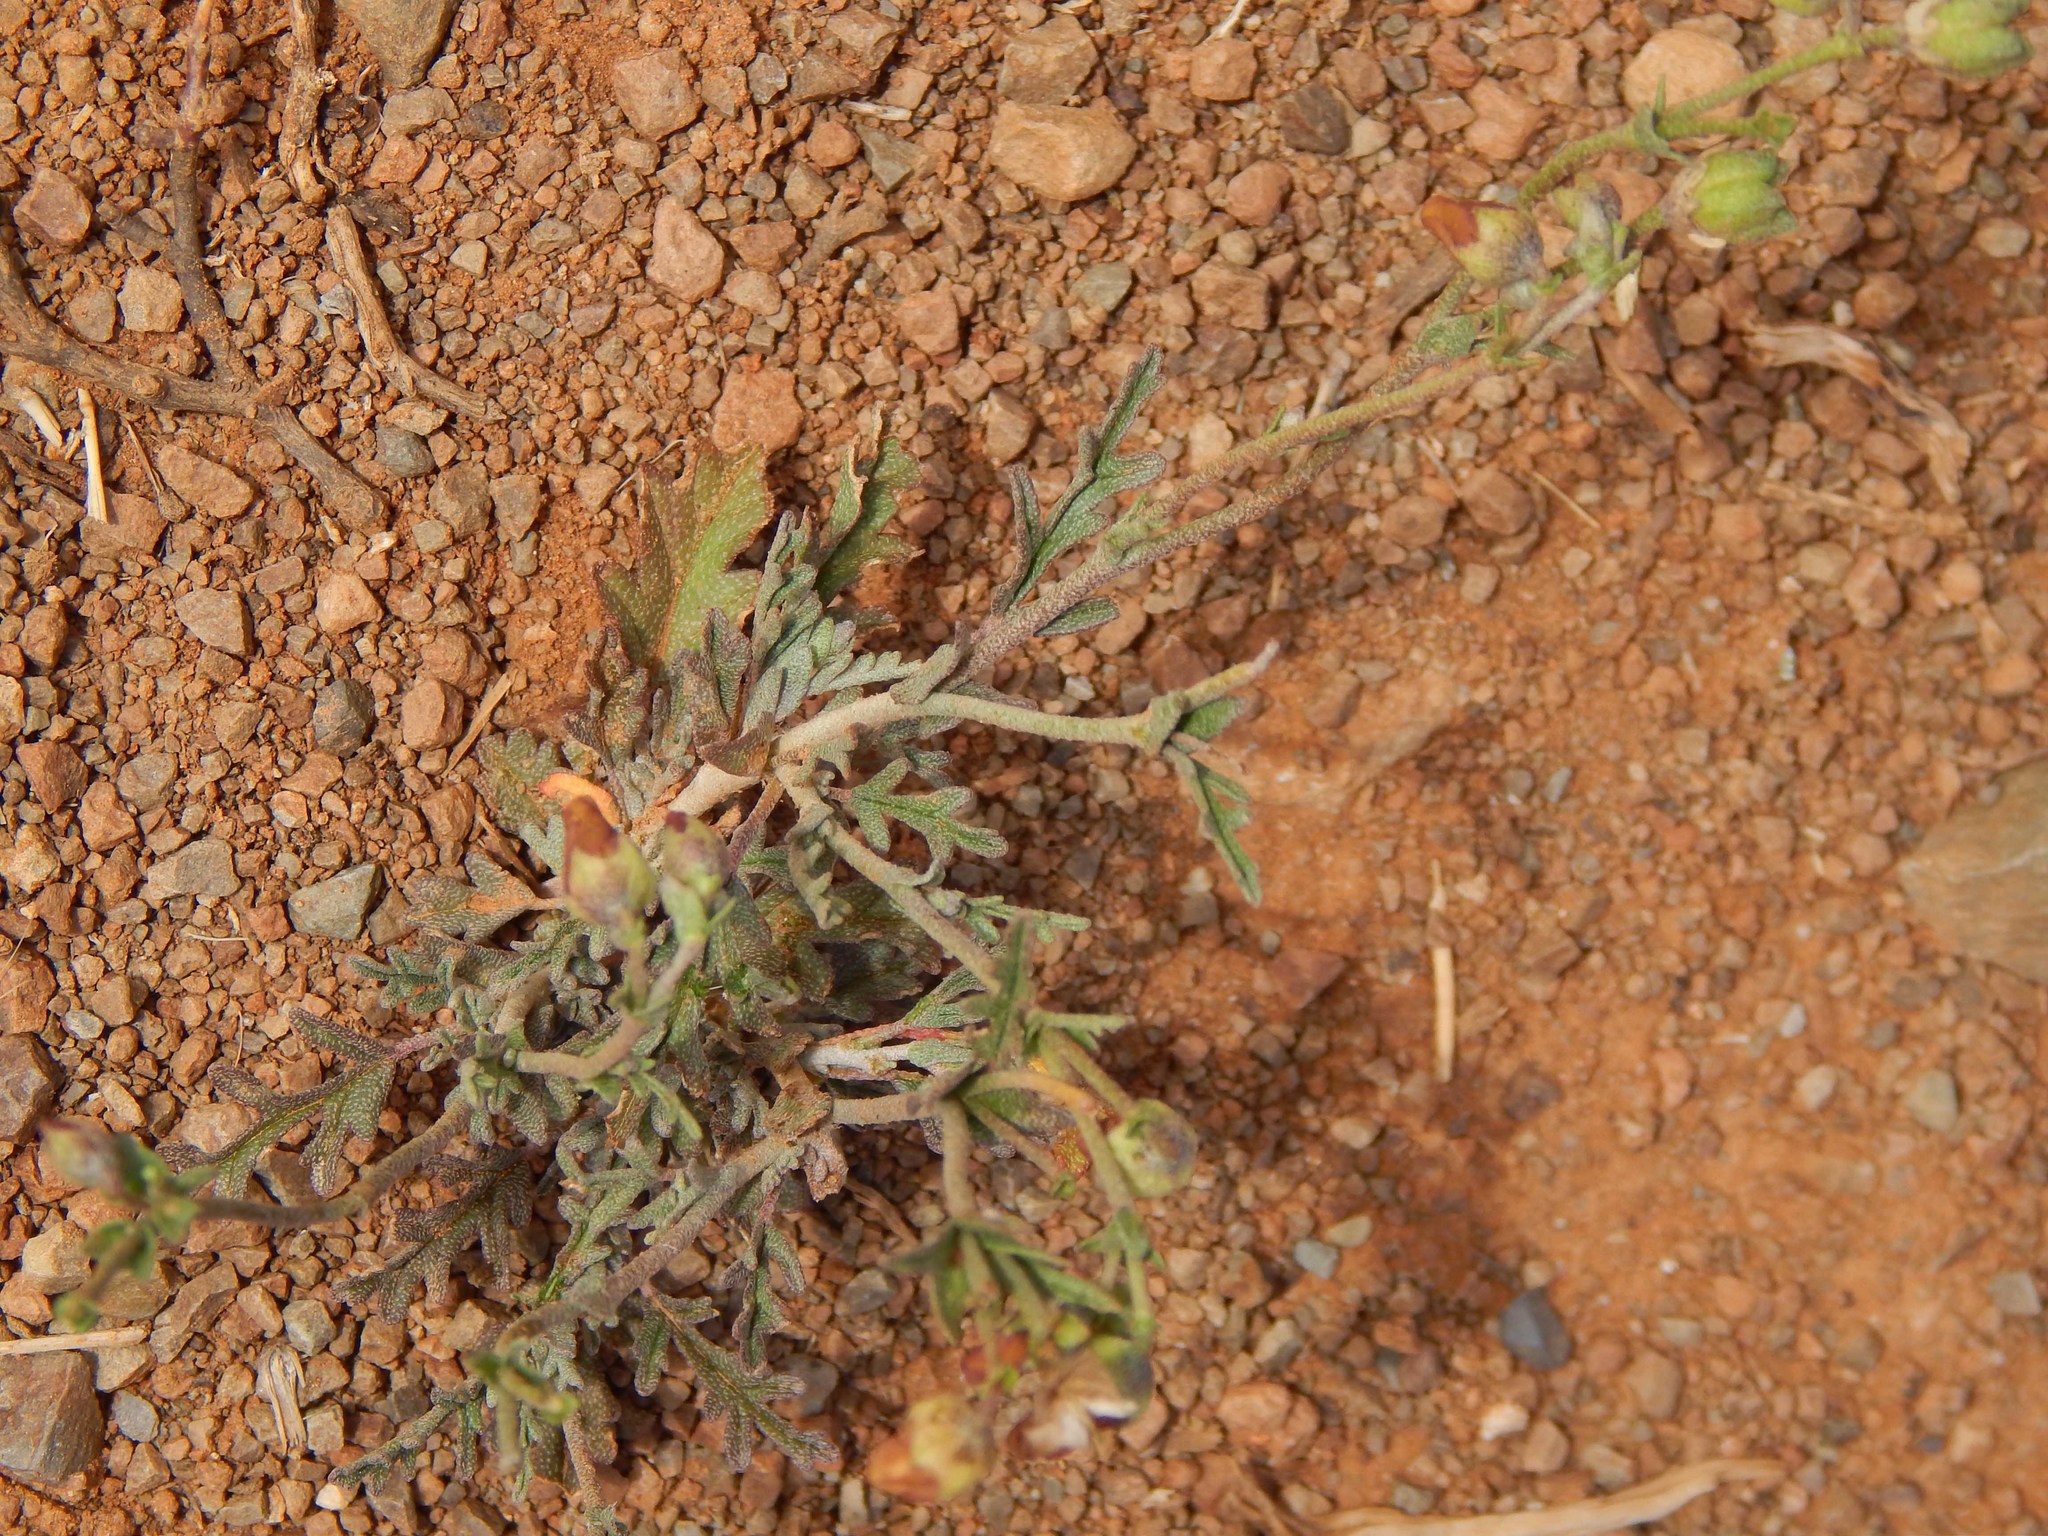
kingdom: Plantae
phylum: Tracheophyta
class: Magnoliopsida
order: Malvales
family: Malvaceae
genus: Hermannia
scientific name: Hermannia pulverata
